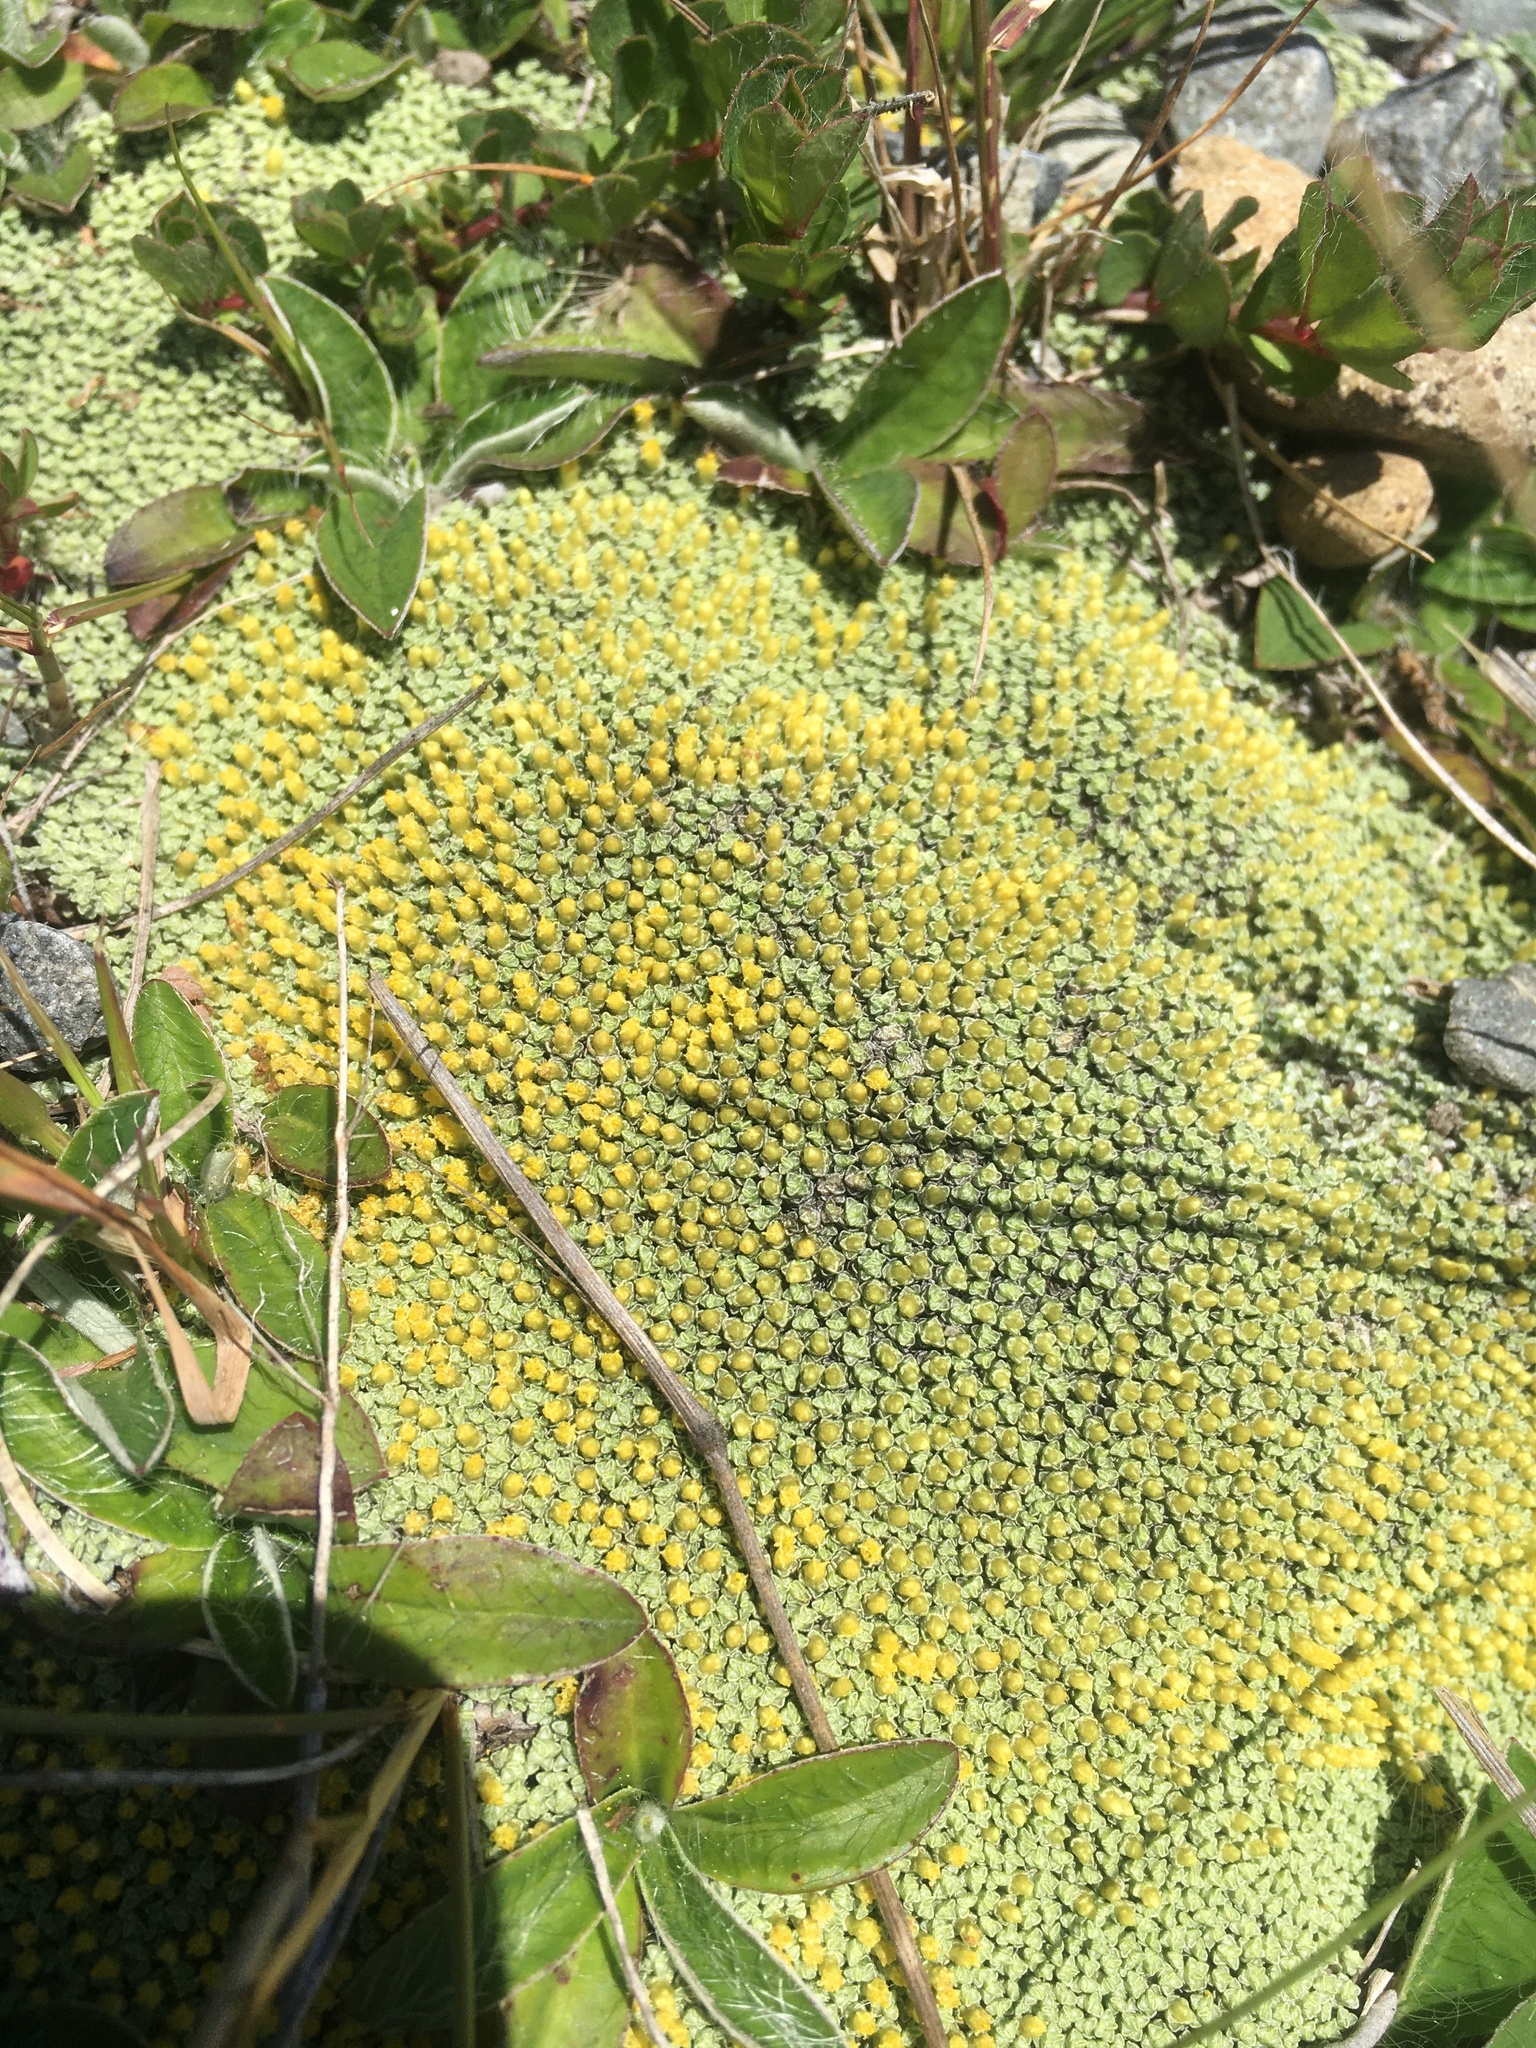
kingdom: Plantae
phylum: Tracheophyta
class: Magnoliopsida
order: Asterales
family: Asteraceae
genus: Raoulia
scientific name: Raoulia australis
